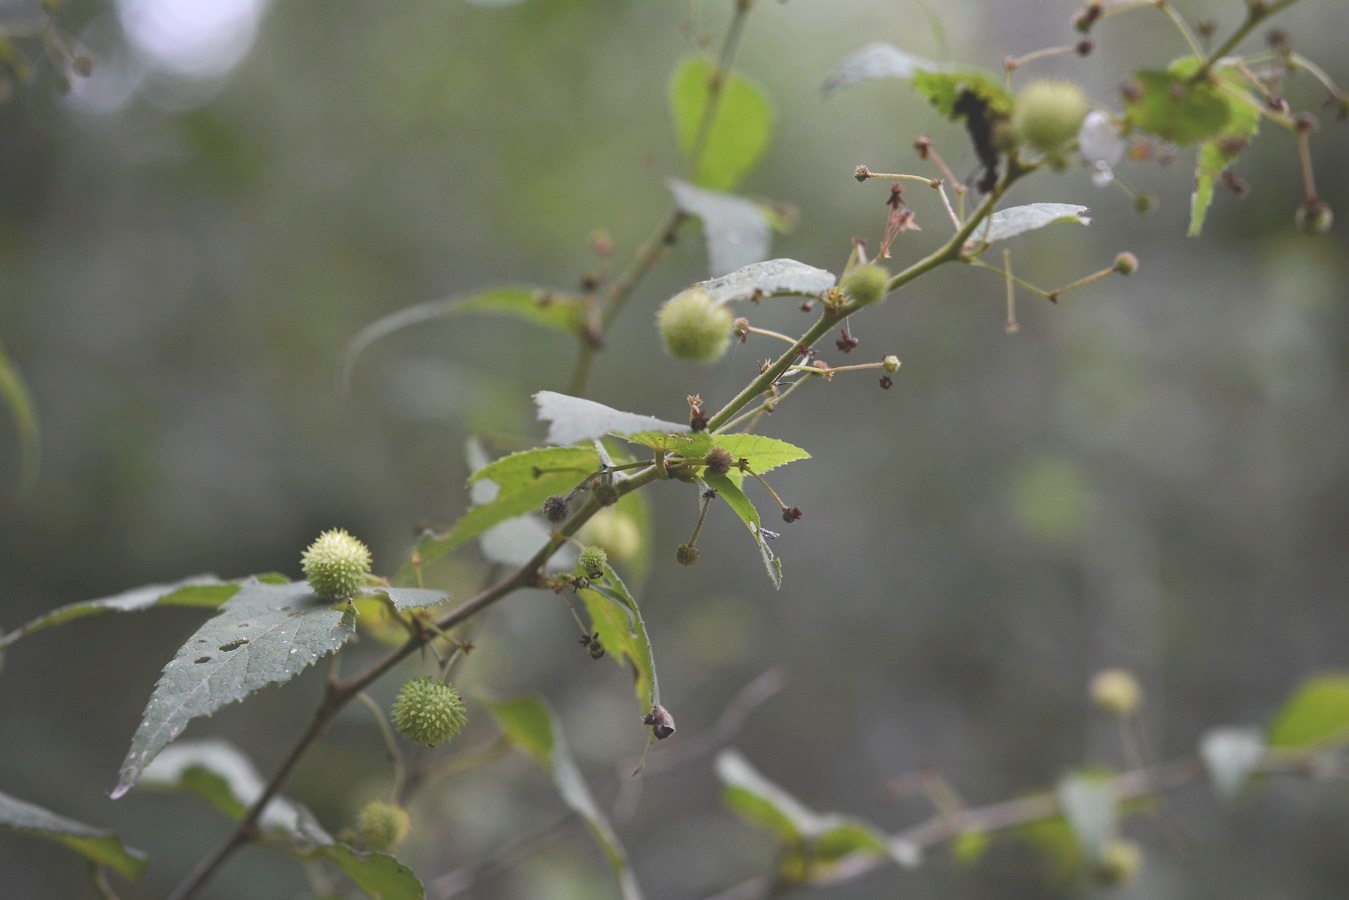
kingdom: Plantae
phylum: Tracheophyta
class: Magnoliopsida
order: Malvales
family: Malvaceae
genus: Ayenia
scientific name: Ayenia micrantha
